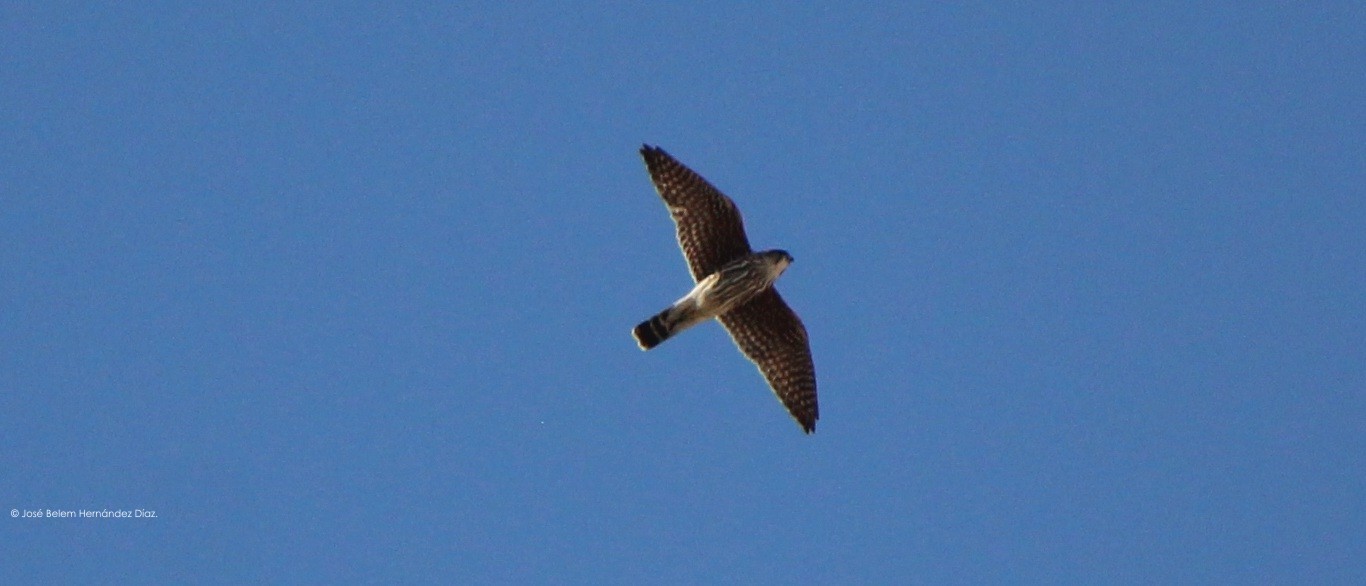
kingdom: Animalia
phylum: Chordata
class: Aves
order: Falconiformes
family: Falconidae
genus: Falco
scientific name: Falco columbarius
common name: Merlin
